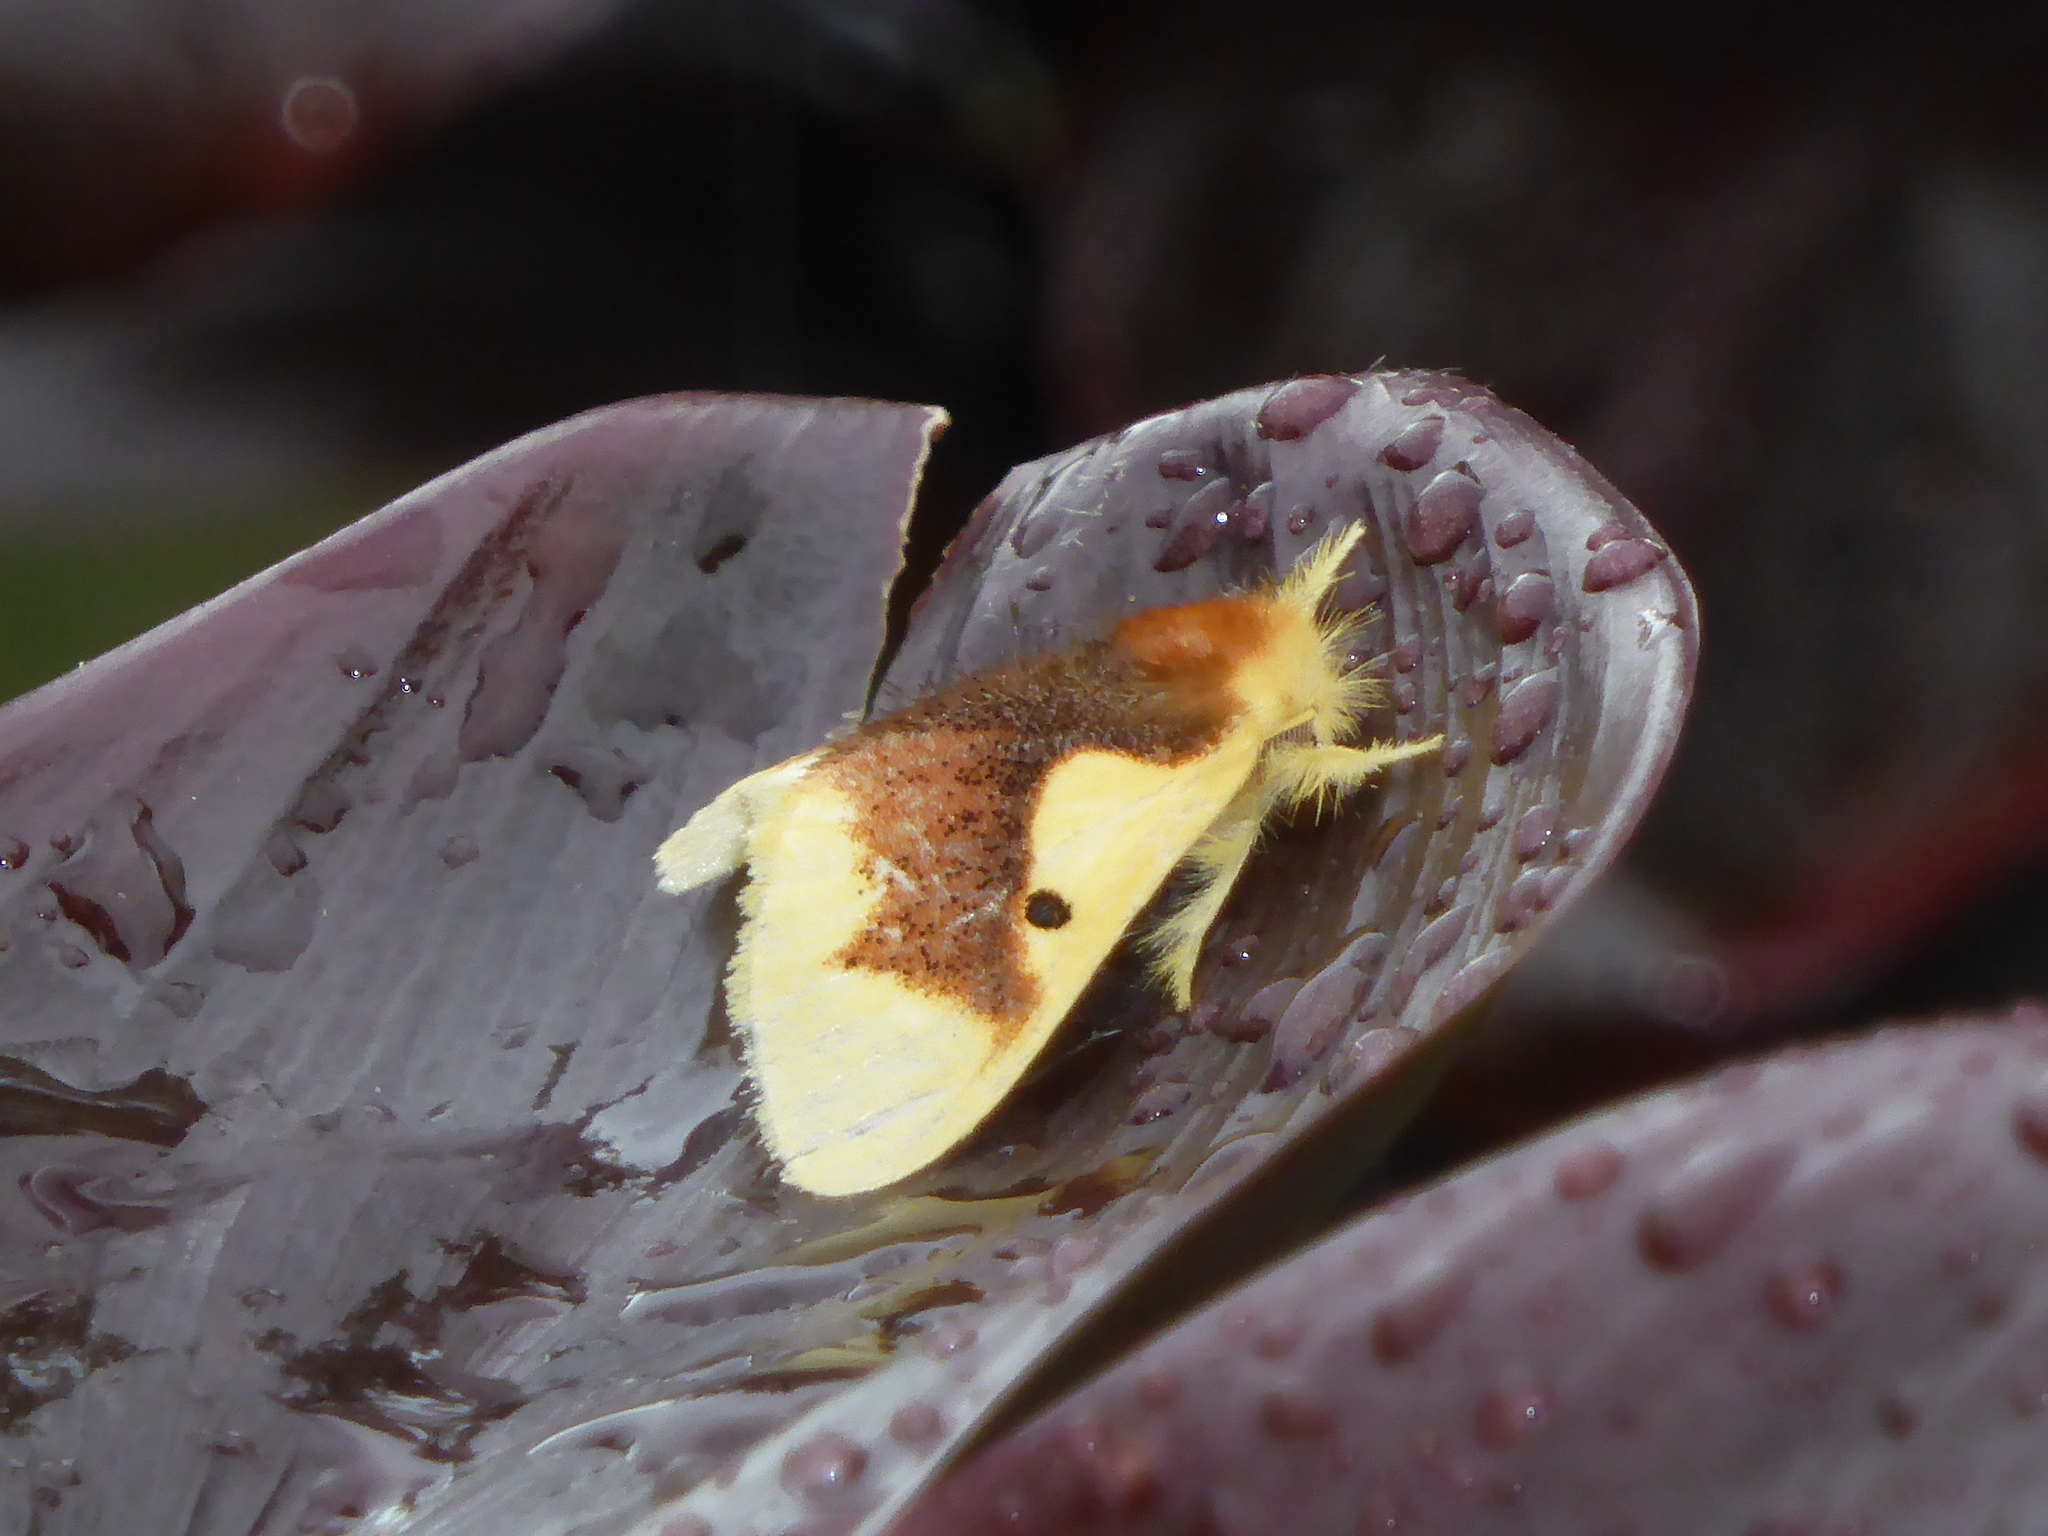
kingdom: Animalia
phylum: Arthropoda
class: Insecta
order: Lepidoptera
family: Erebidae
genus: Nygmia
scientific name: Nygmia solitaria
